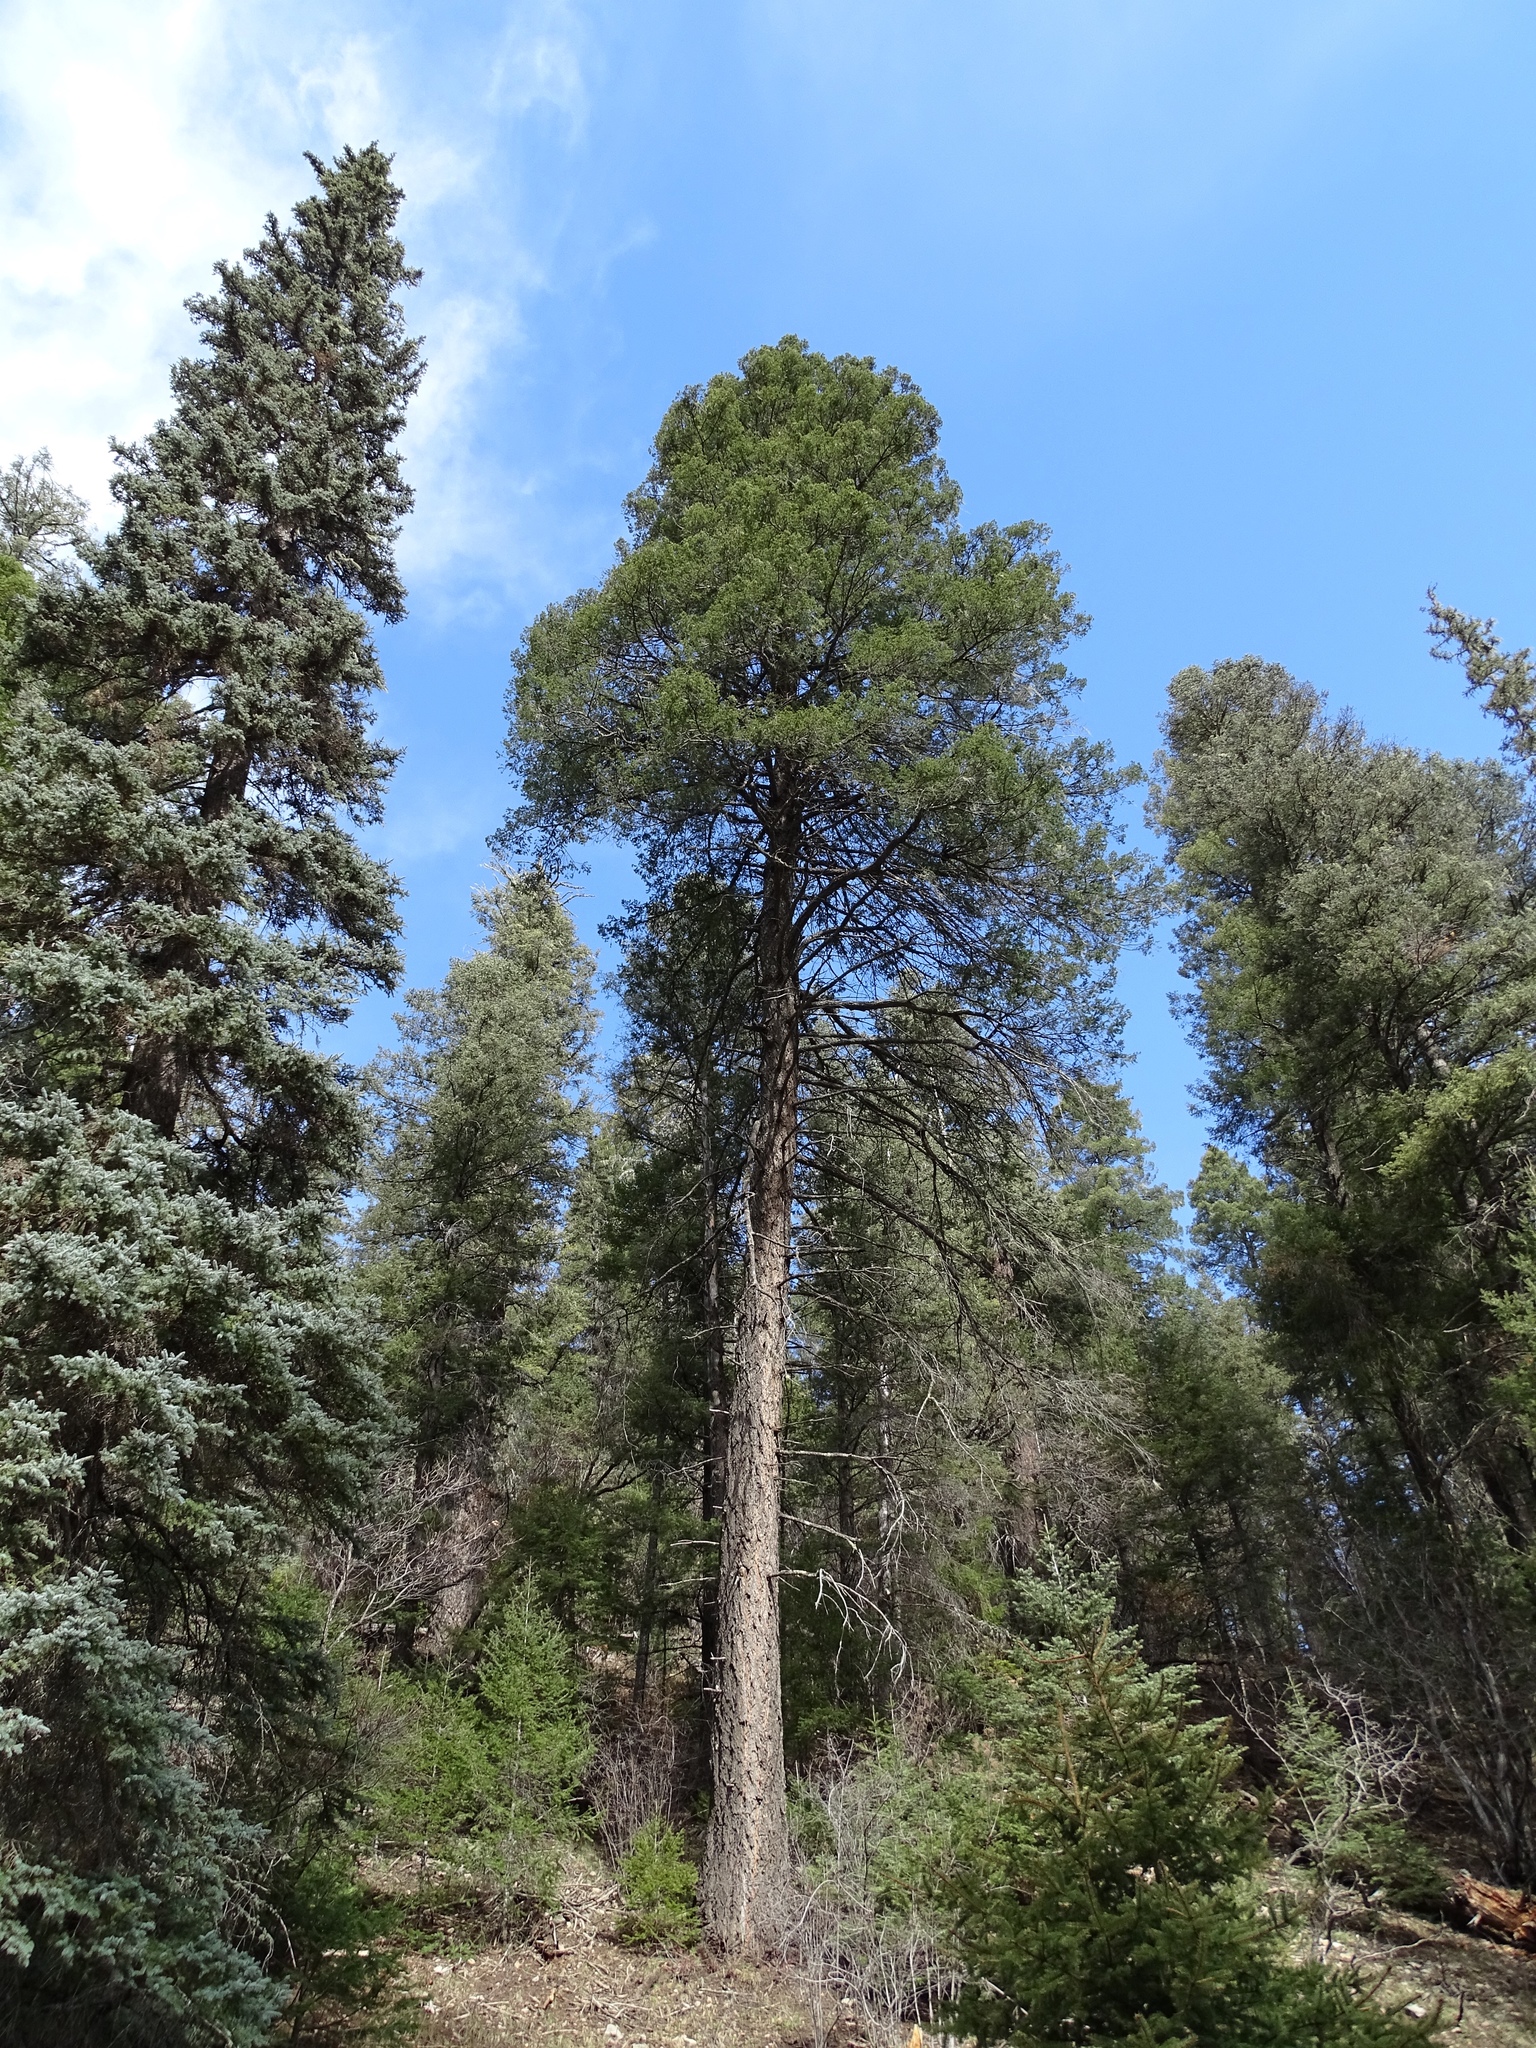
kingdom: Plantae
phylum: Tracheophyta
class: Pinopsida
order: Pinales
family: Pinaceae
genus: Pseudotsuga
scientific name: Pseudotsuga menziesii
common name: Douglas fir
